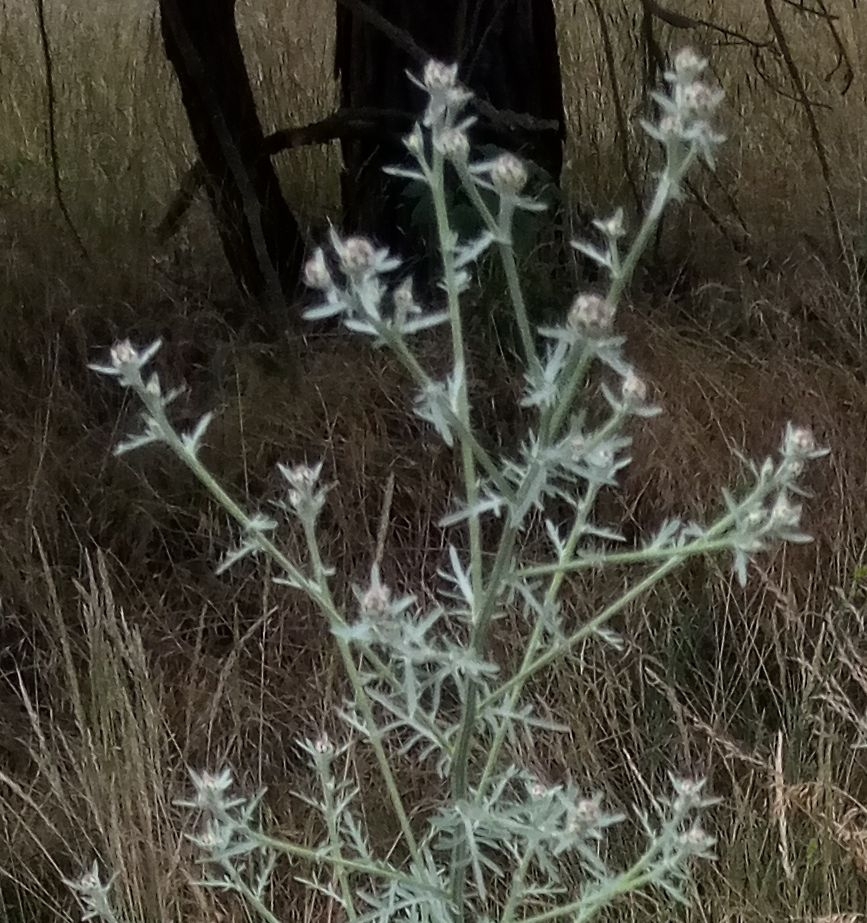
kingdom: Plantae
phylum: Tracheophyta
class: Magnoliopsida
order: Asterales
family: Asteraceae
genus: Centaurea
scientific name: Centaurea stoebe
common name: Spotted knapweed
